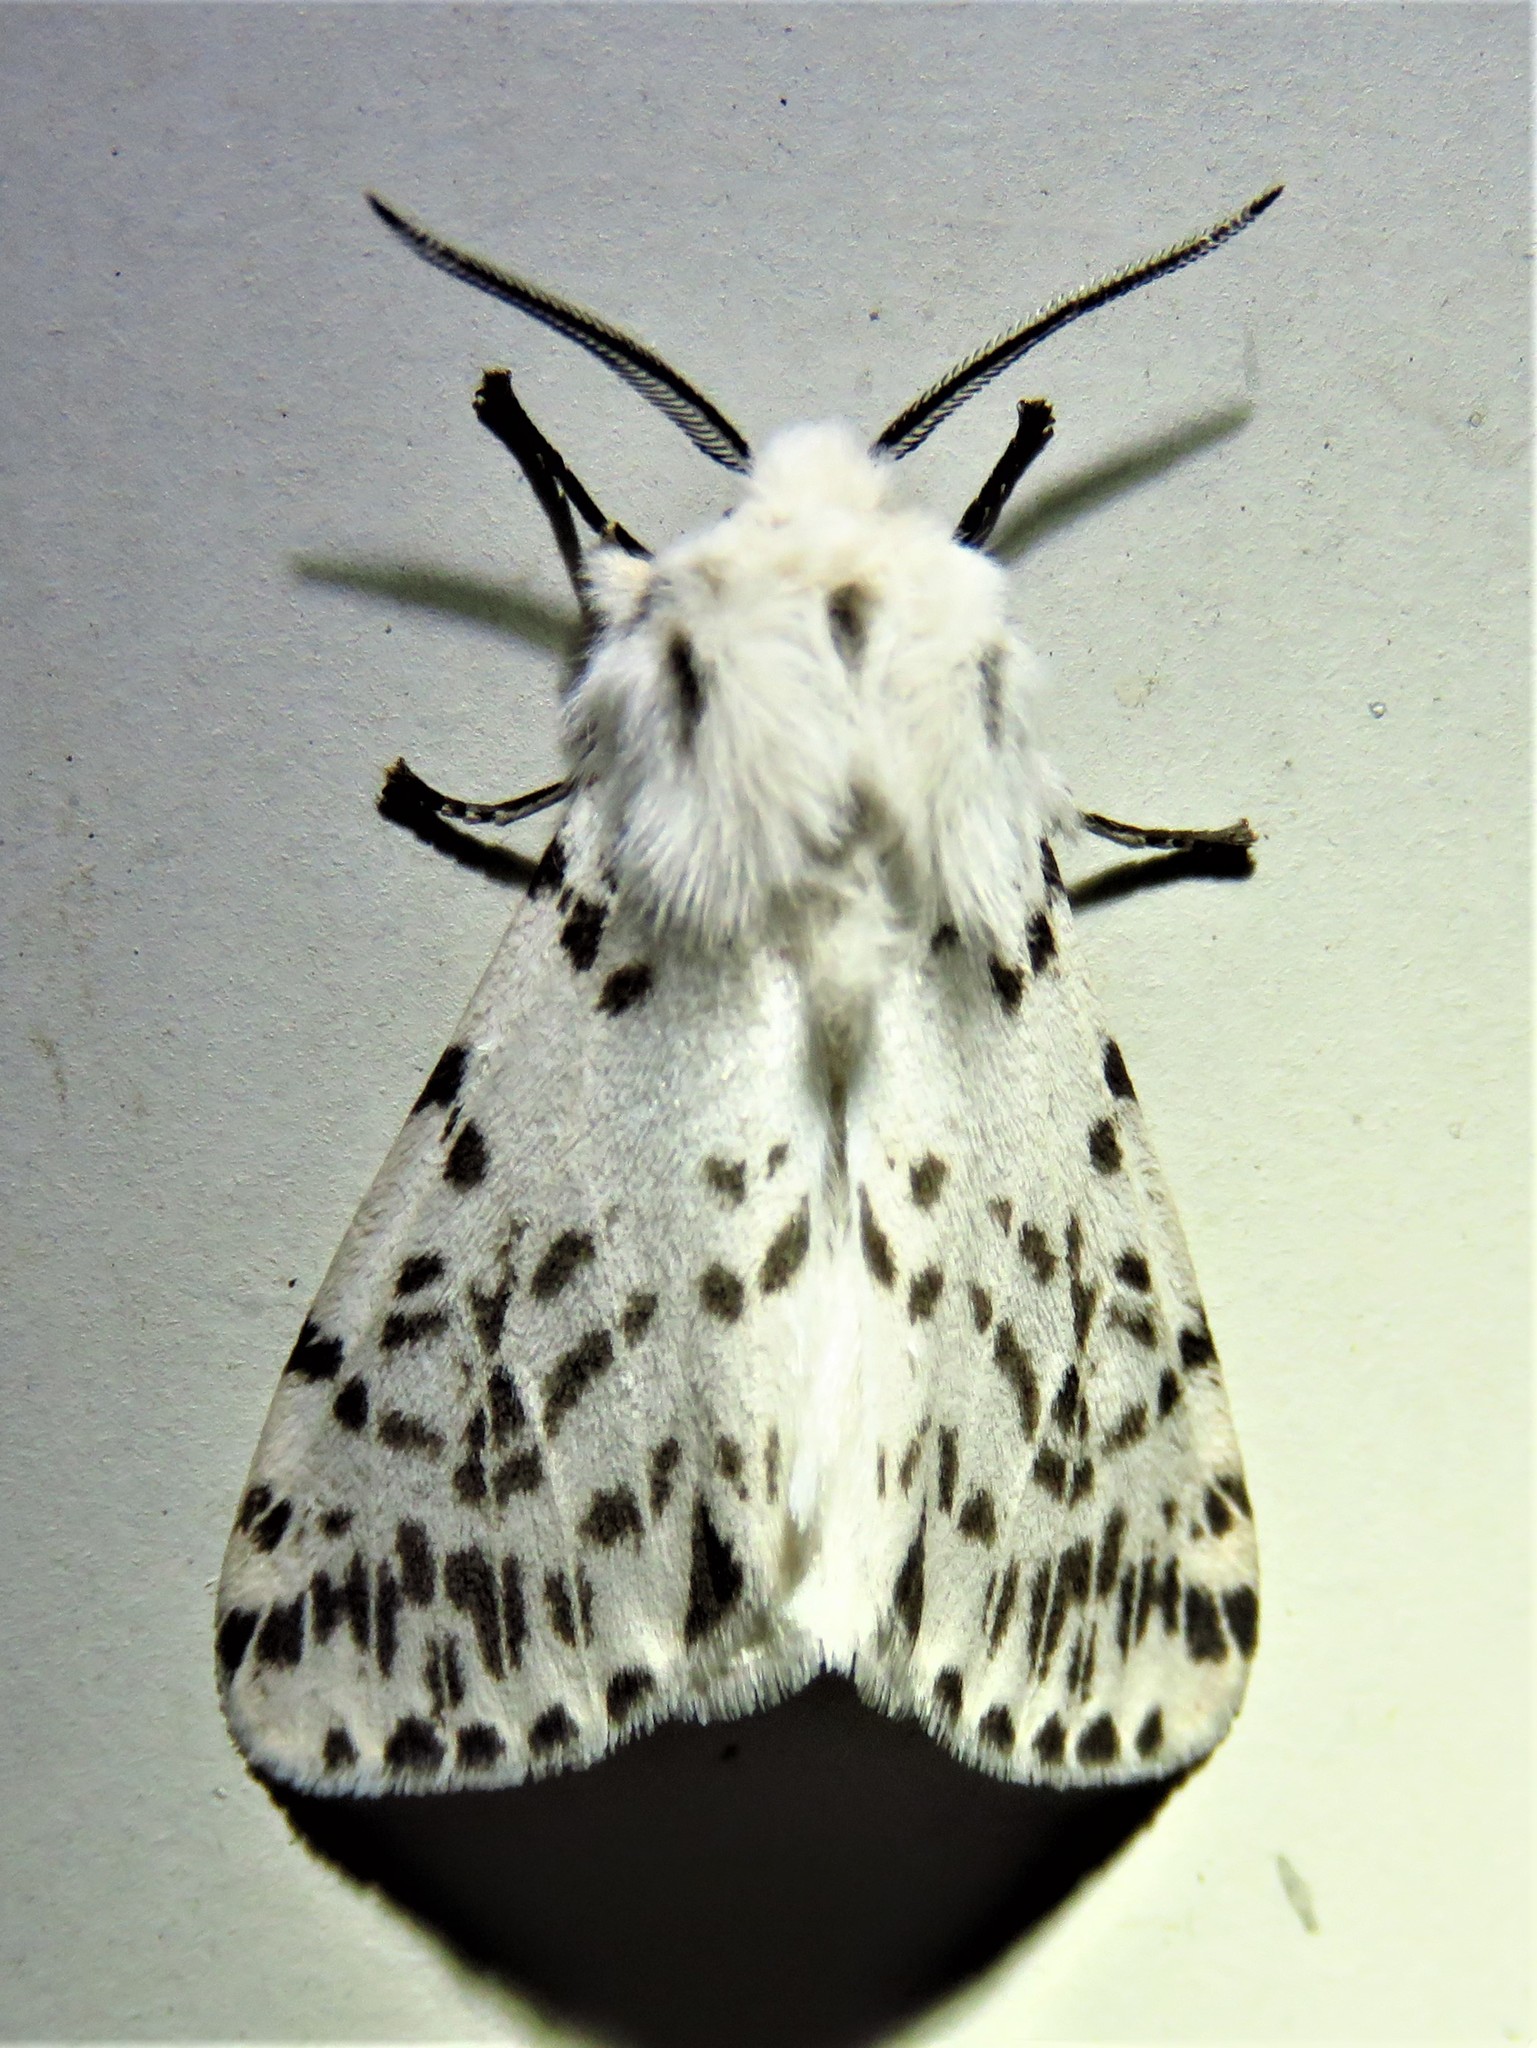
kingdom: Animalia
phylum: Arthropoda
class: Insecta
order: Lepidoptera
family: Erebidae
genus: Hyphantria
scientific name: Hyphantria cunea
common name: American white moth
